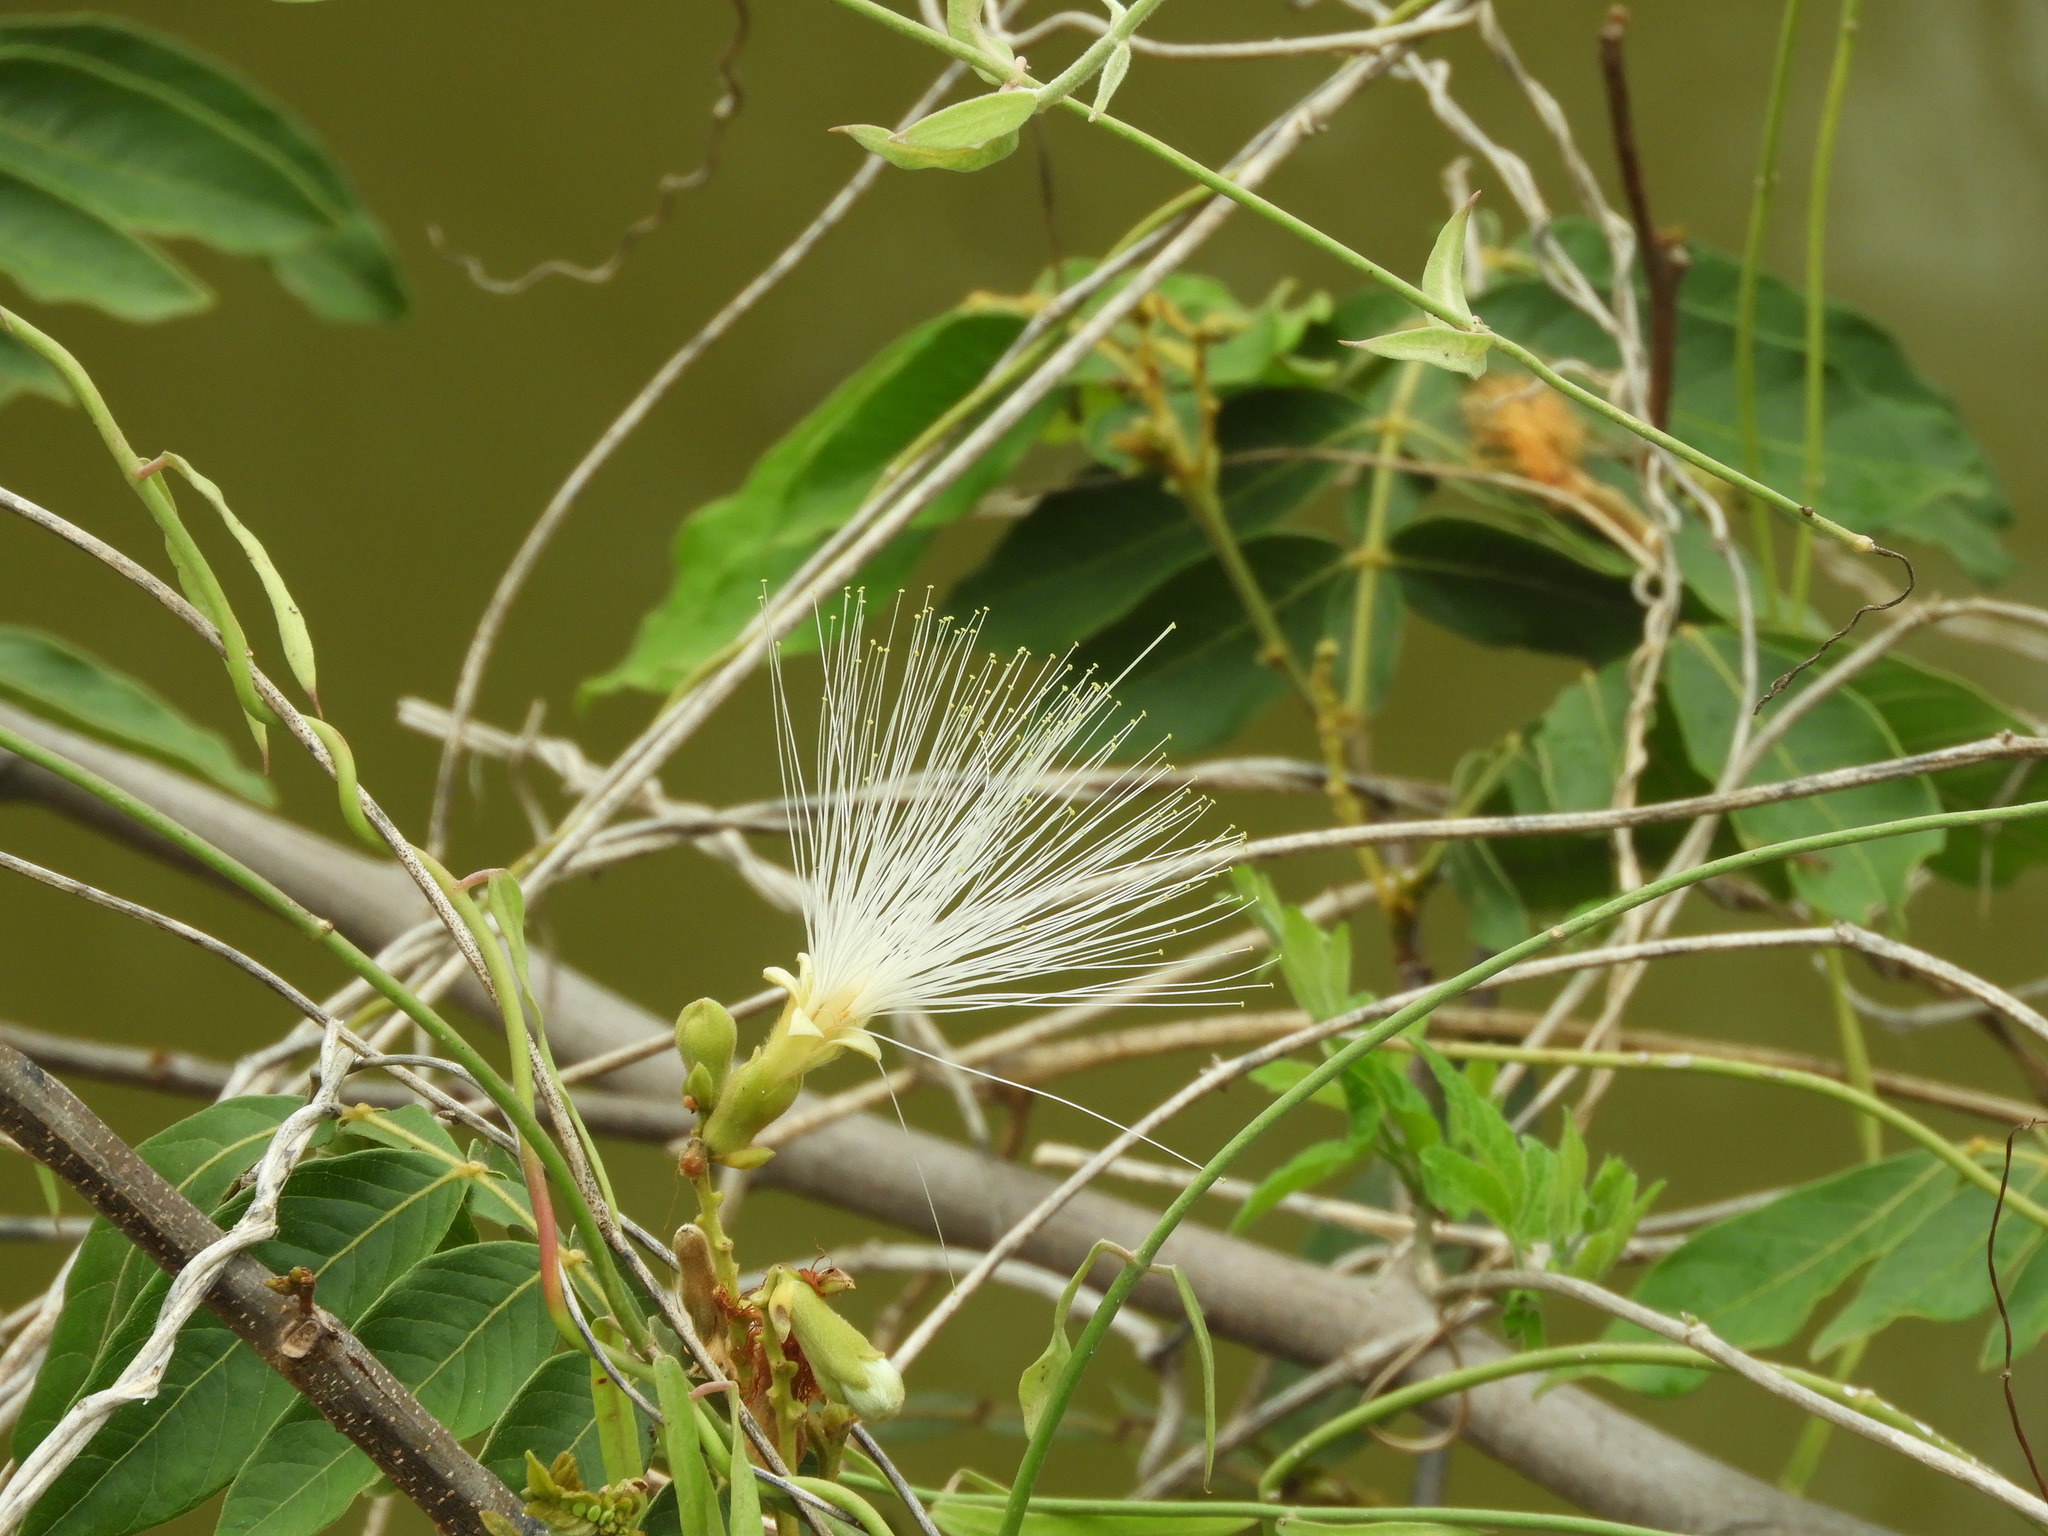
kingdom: Plantae
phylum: Tracheophyta
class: Magnoliopsida
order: Fabales
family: Fabaceae
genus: Inga
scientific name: Inga vera
